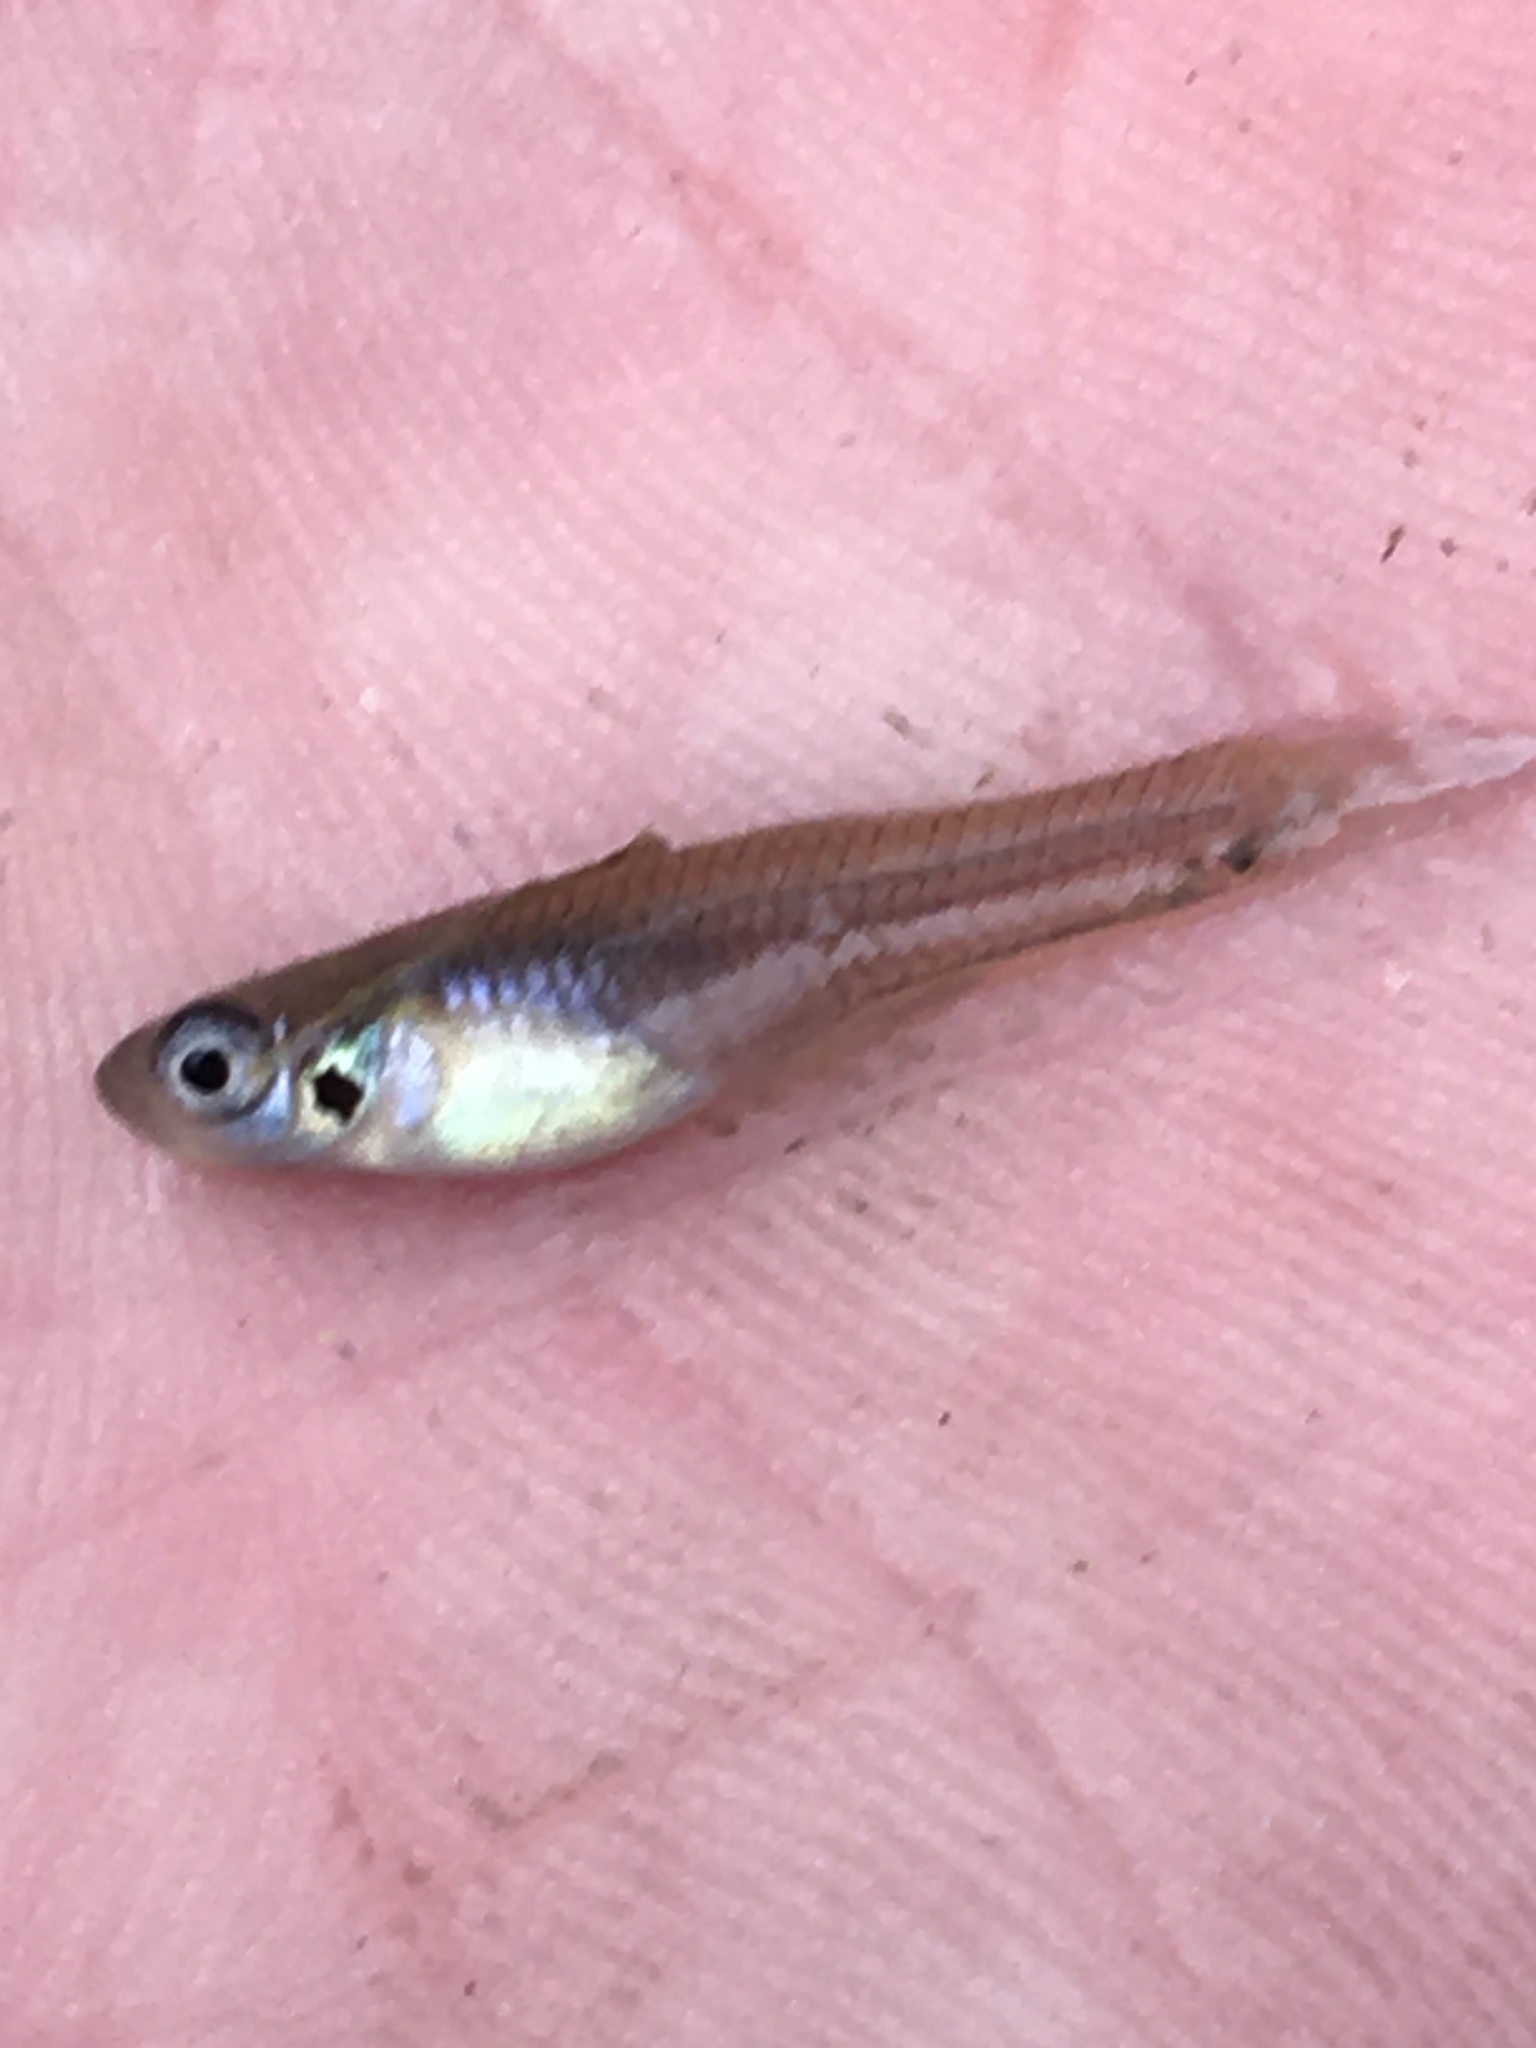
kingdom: Animalia
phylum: Chordata
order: Cyprinodontiformes
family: Poeciliidae
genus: Gambusia
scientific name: Gambusia affinis
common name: Mosquitofish
